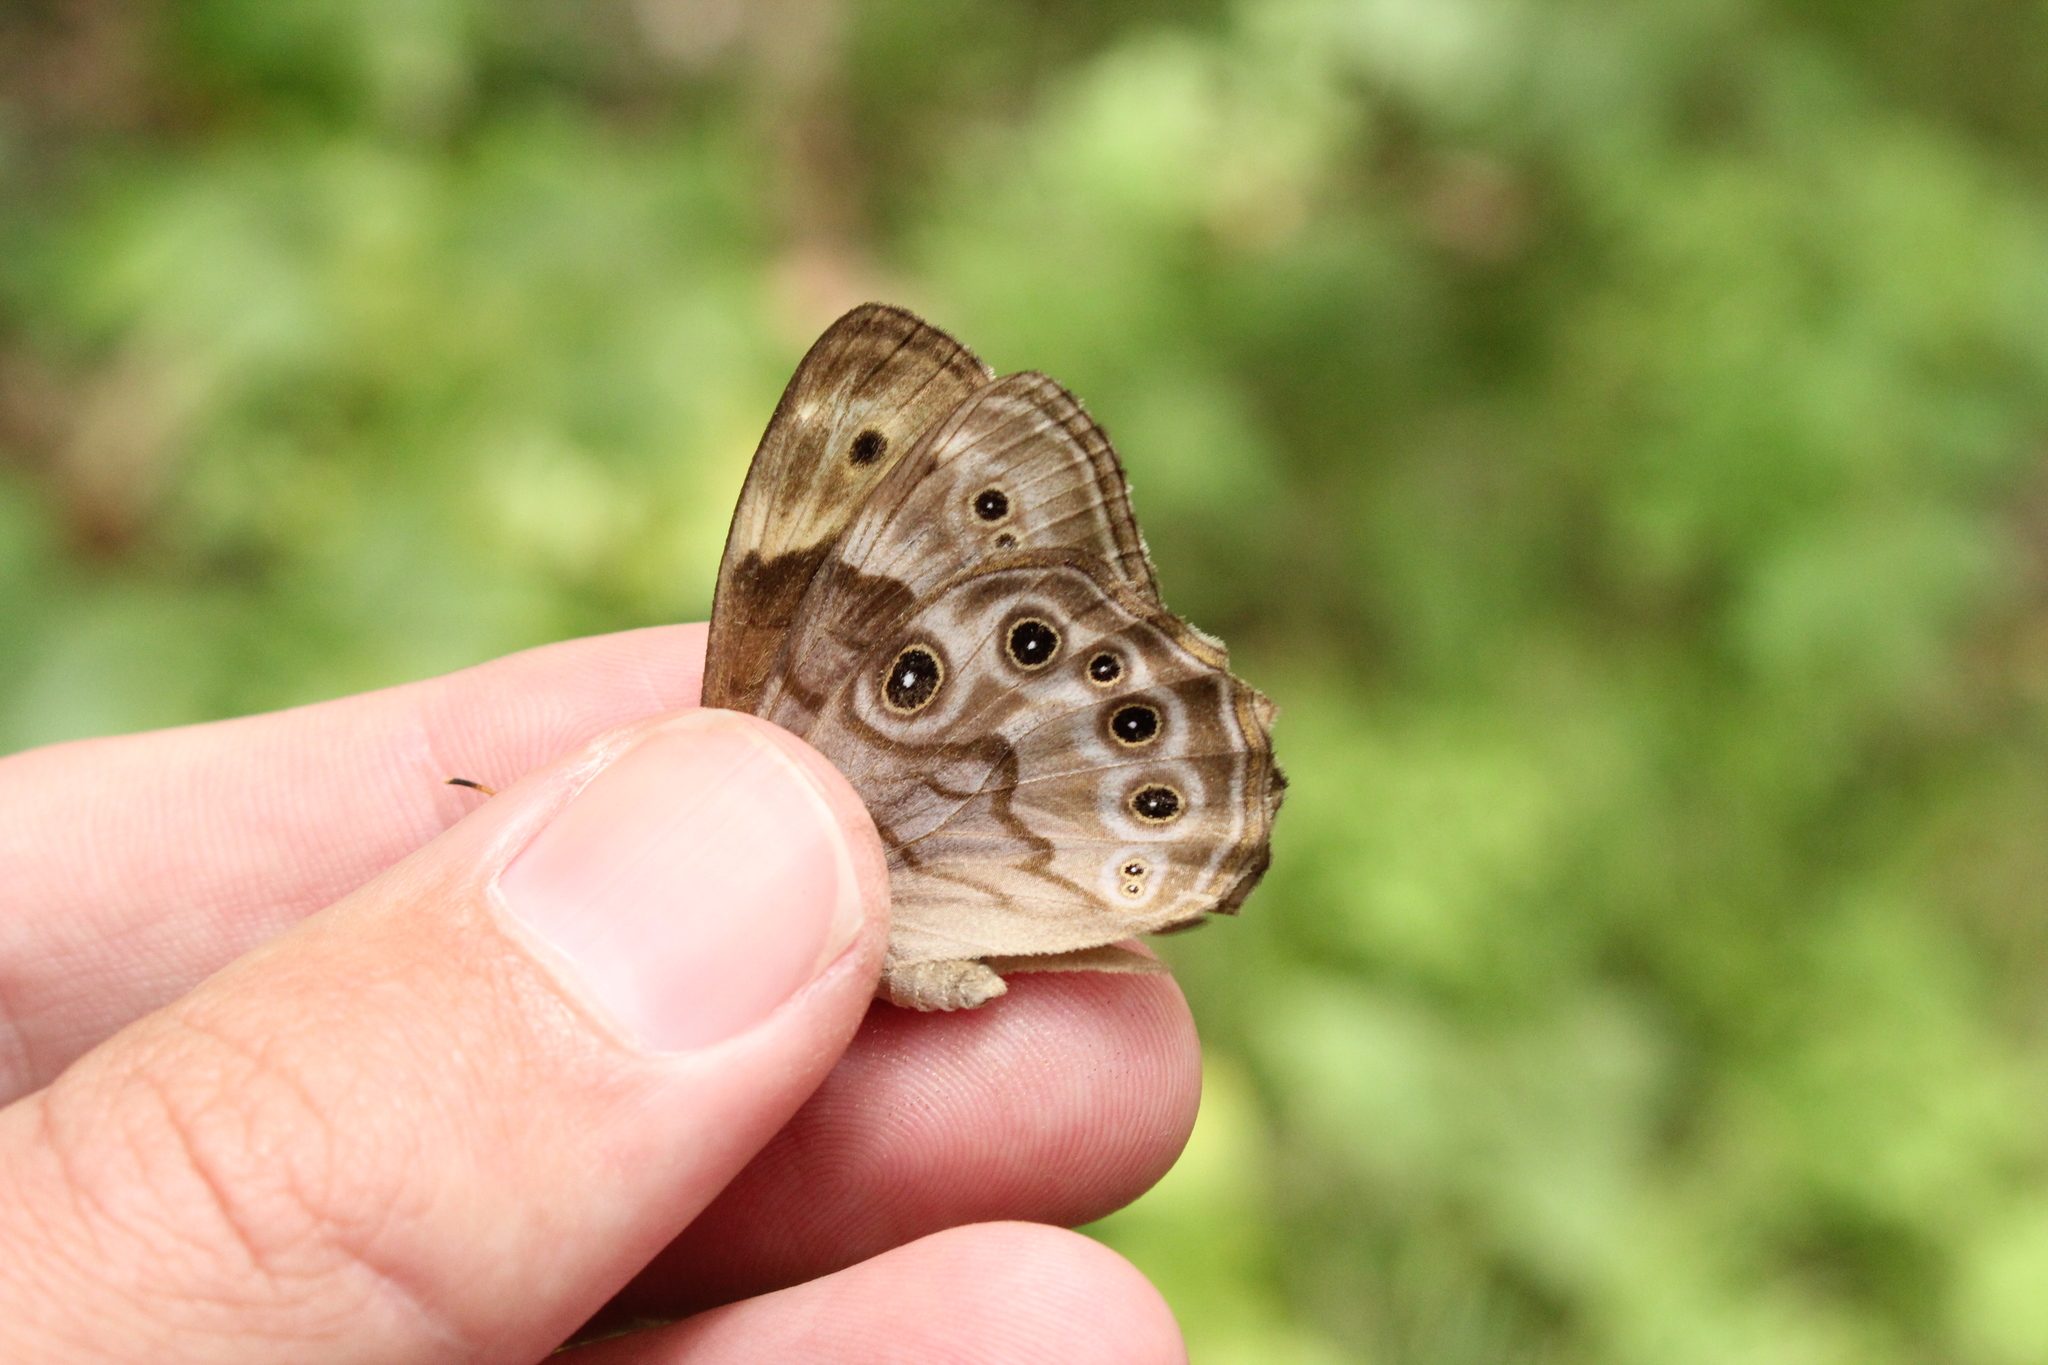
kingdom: Animalia
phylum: Arthropoda
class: Insecta
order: Lepidoptera
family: Nymphalidae
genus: Lethe
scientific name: Lethe anthedon
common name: Northern pearly-eye
